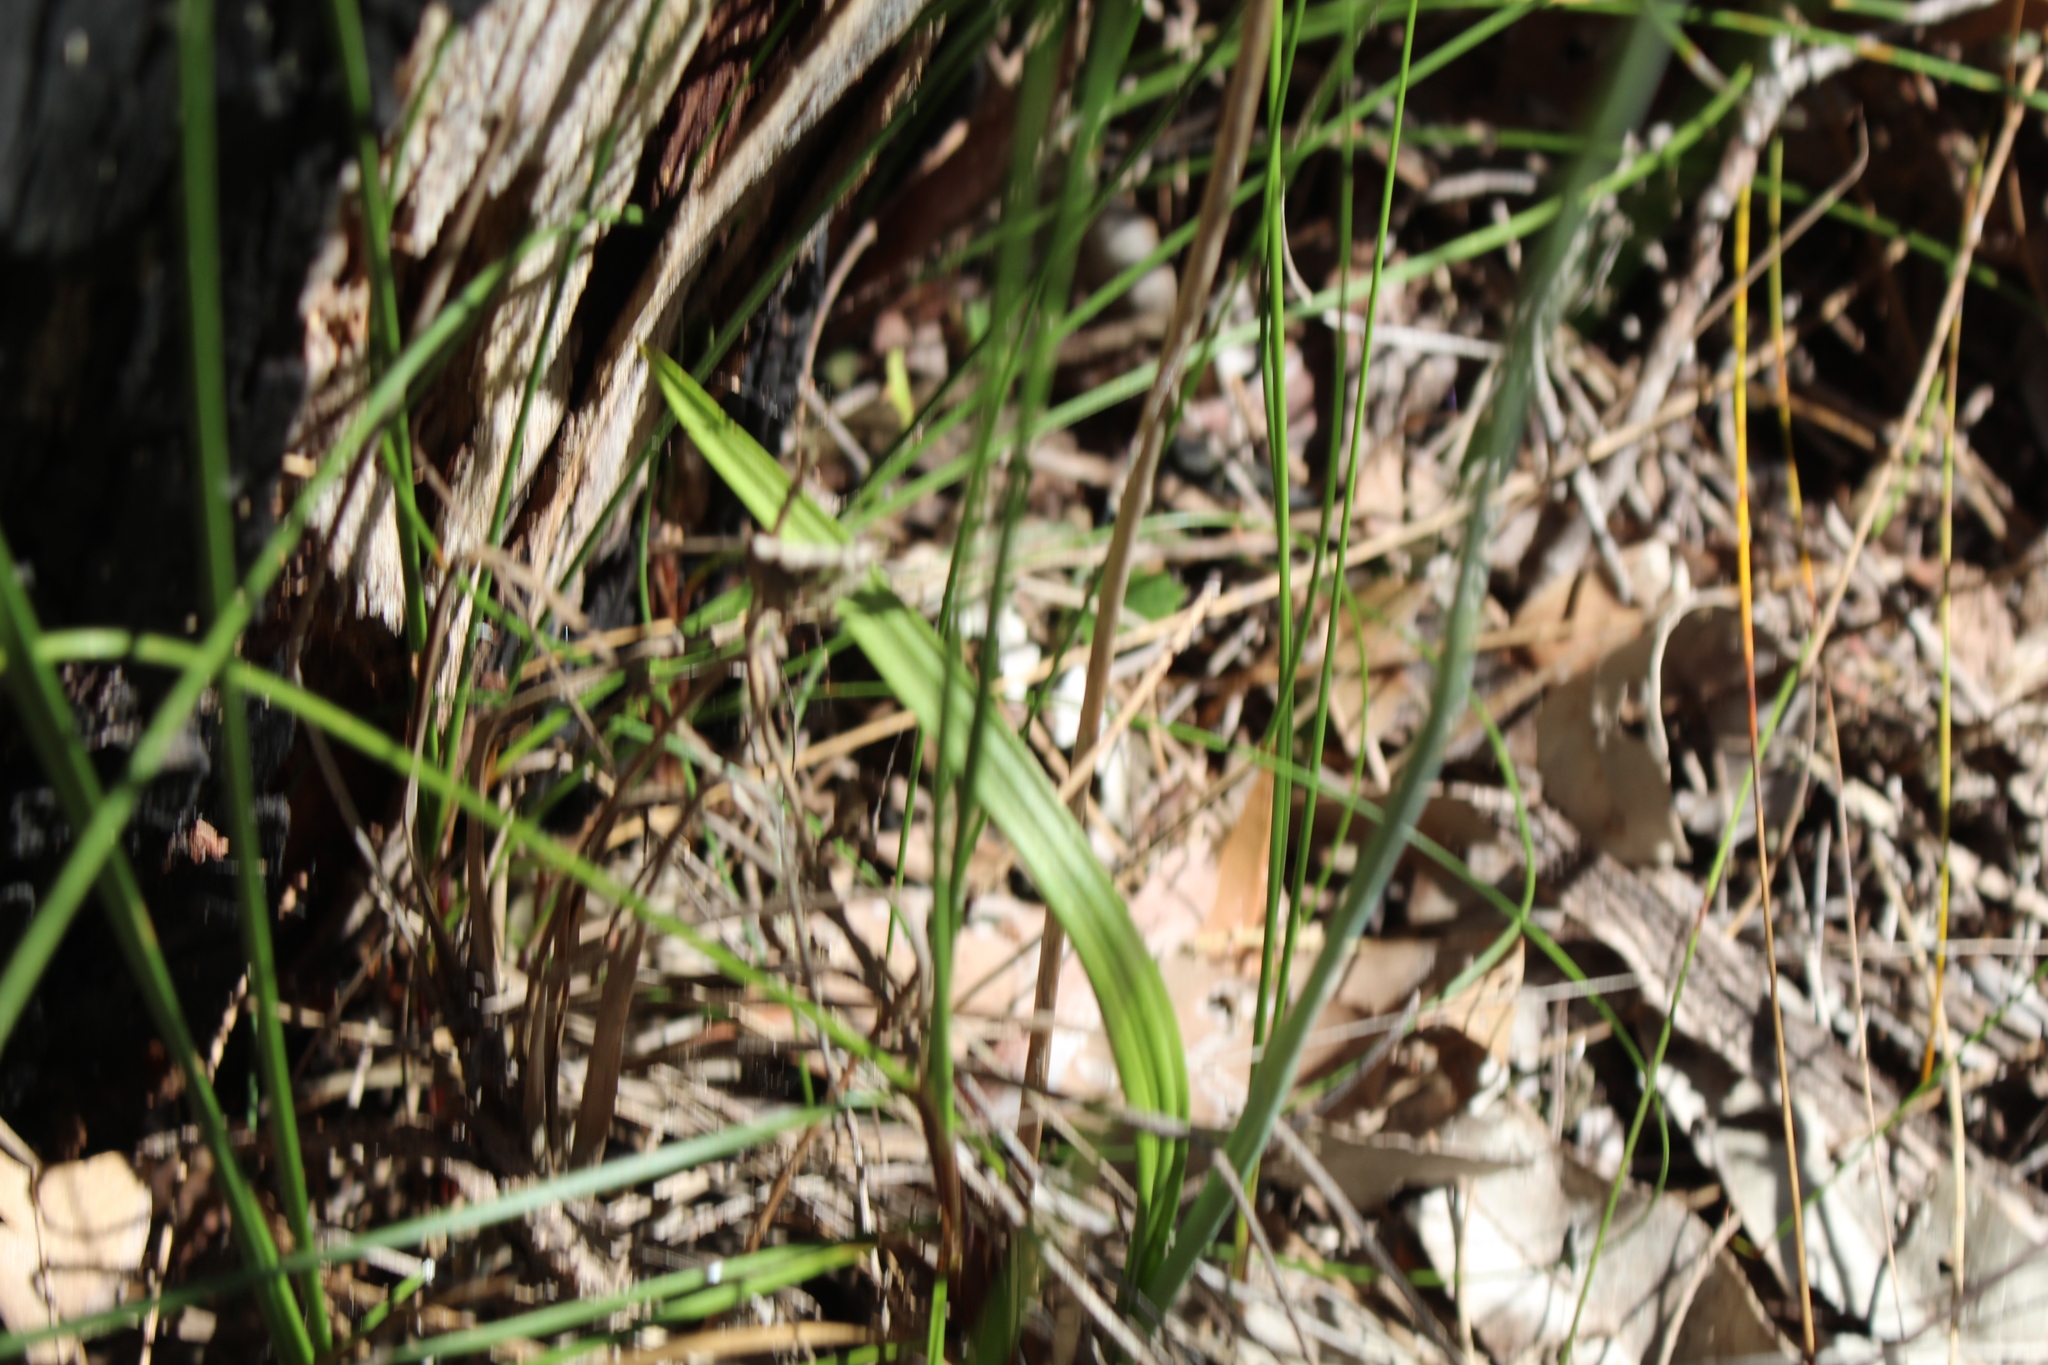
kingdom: Plantae
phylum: Tracheophyta
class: Liliopsida
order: Asparagales
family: Orchidaceae
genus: Thelymitra
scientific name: Thelymitra macrophylla
